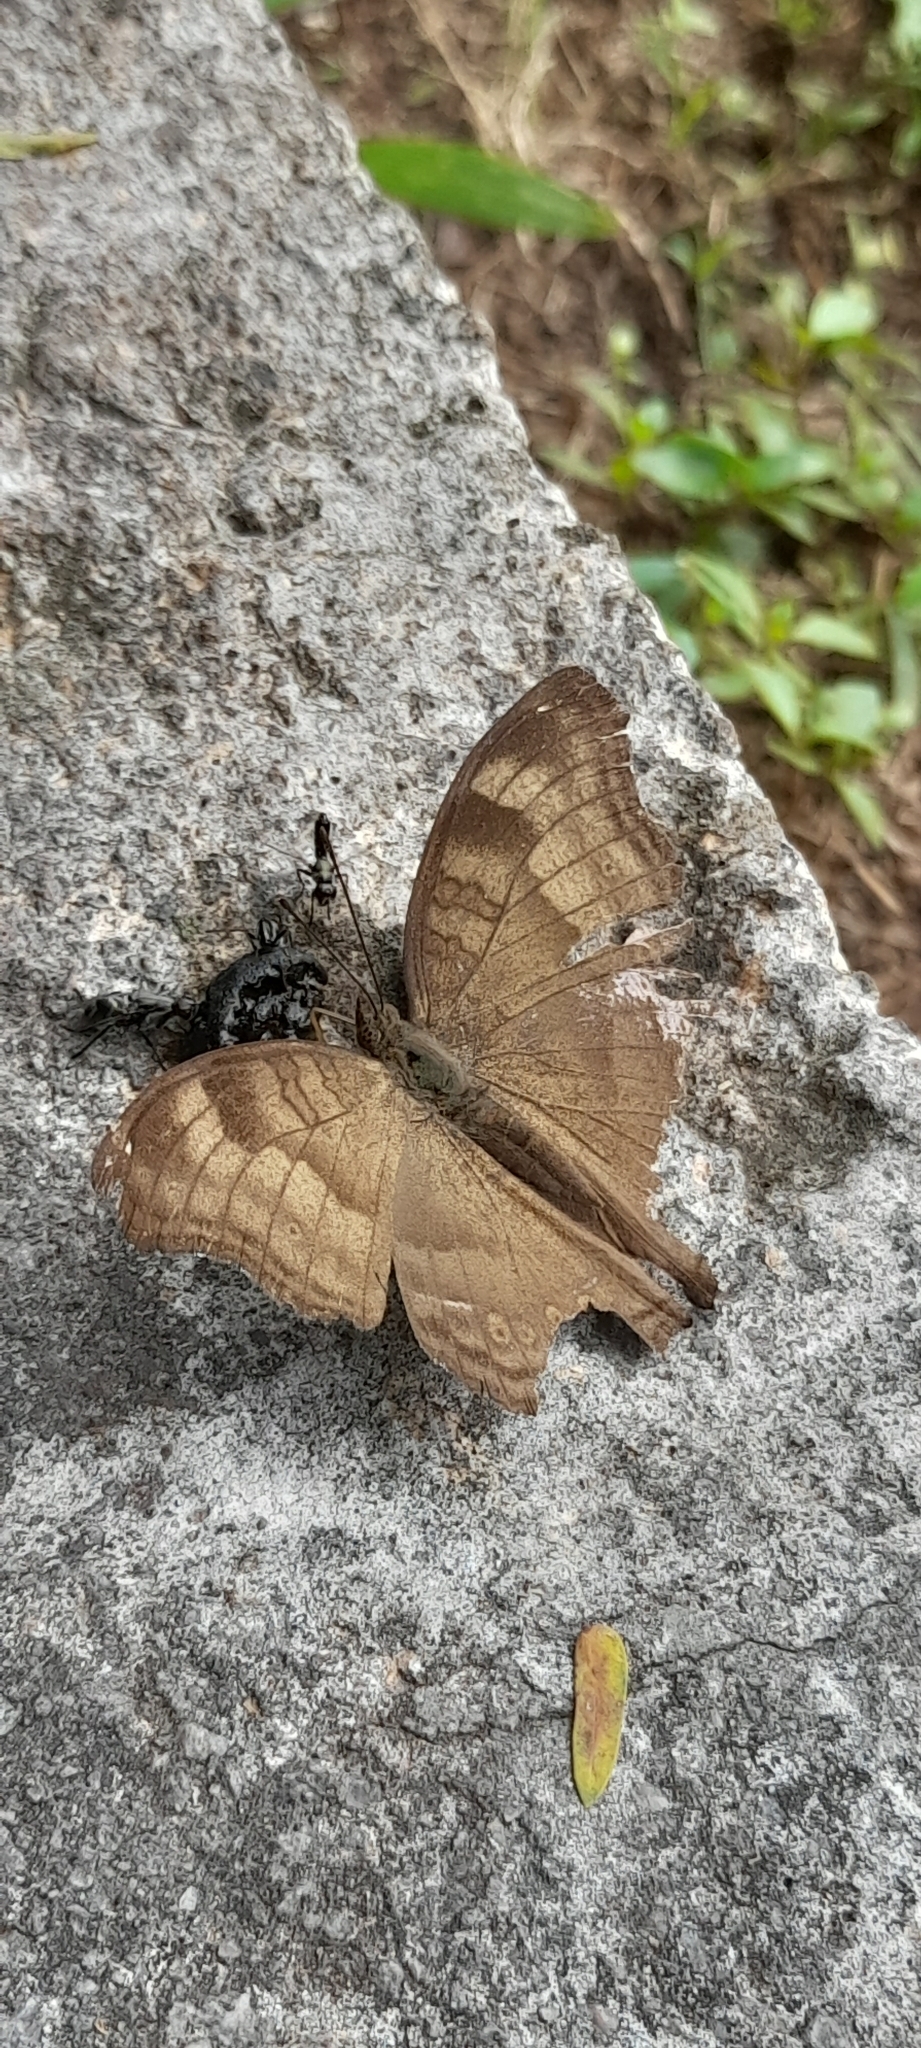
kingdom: Animalia
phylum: Arthropoda
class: Insecta
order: Lepidoptera
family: Nymphalidae
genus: Junonia
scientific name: Junonia iphita
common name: Chocolate pansy
